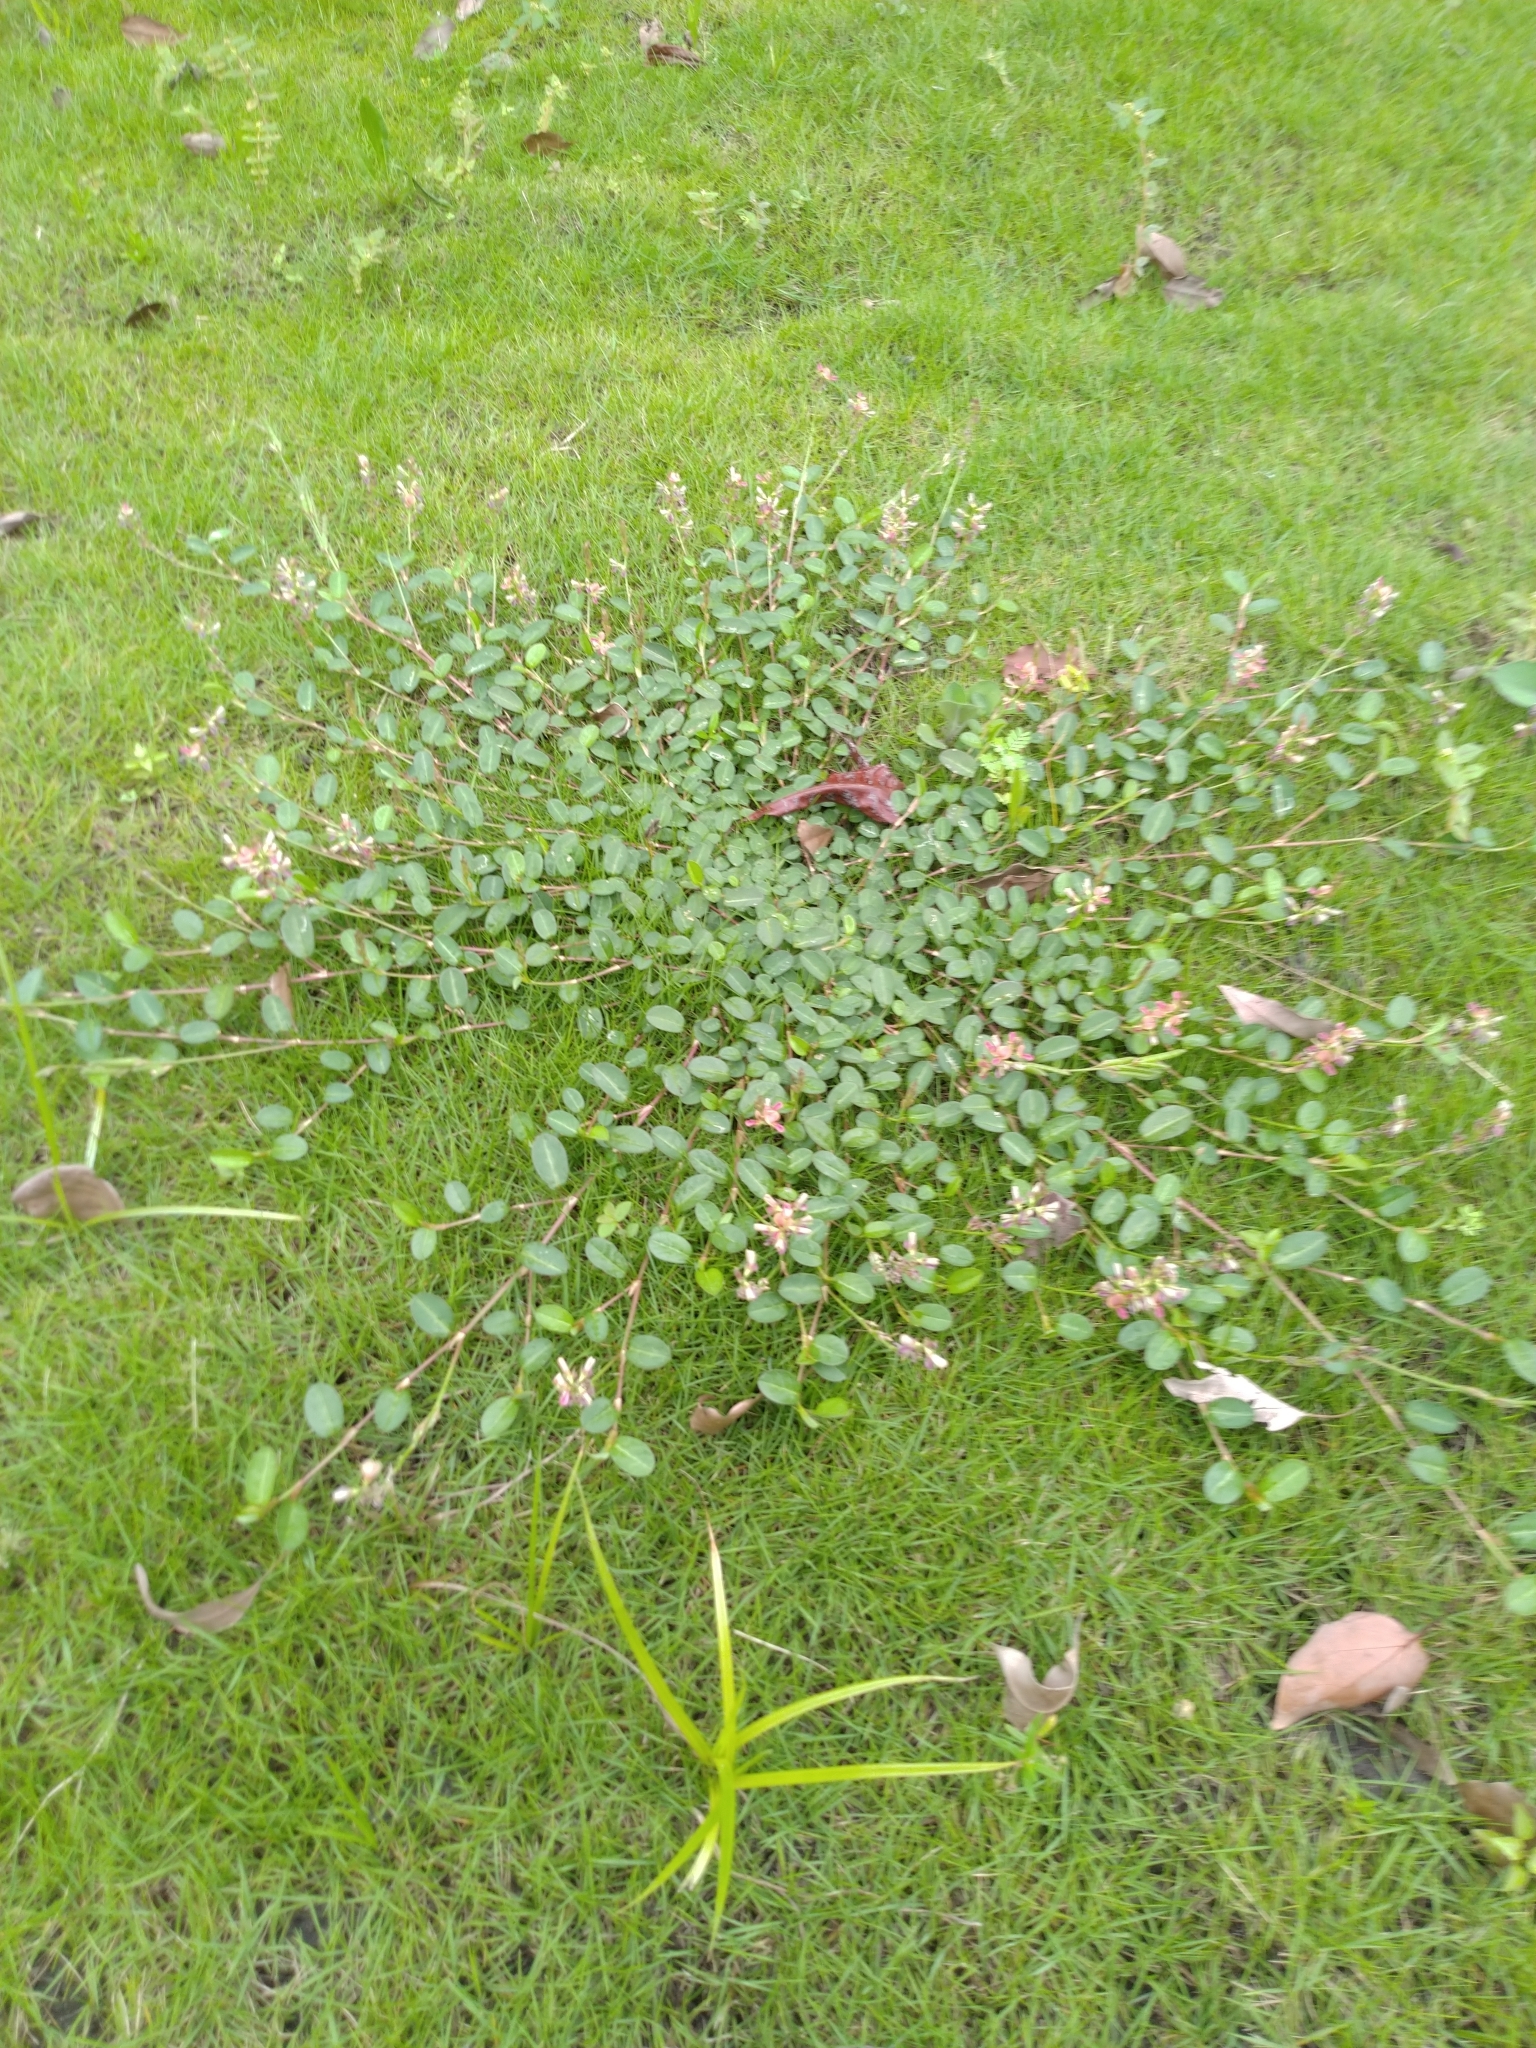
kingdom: Plantae
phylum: Tracheophyta
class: Magnoliopsida
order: Fabales
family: Fabaceae
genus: Alysicarpus
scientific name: Alysicarpus vaginalis
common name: White moneywort
